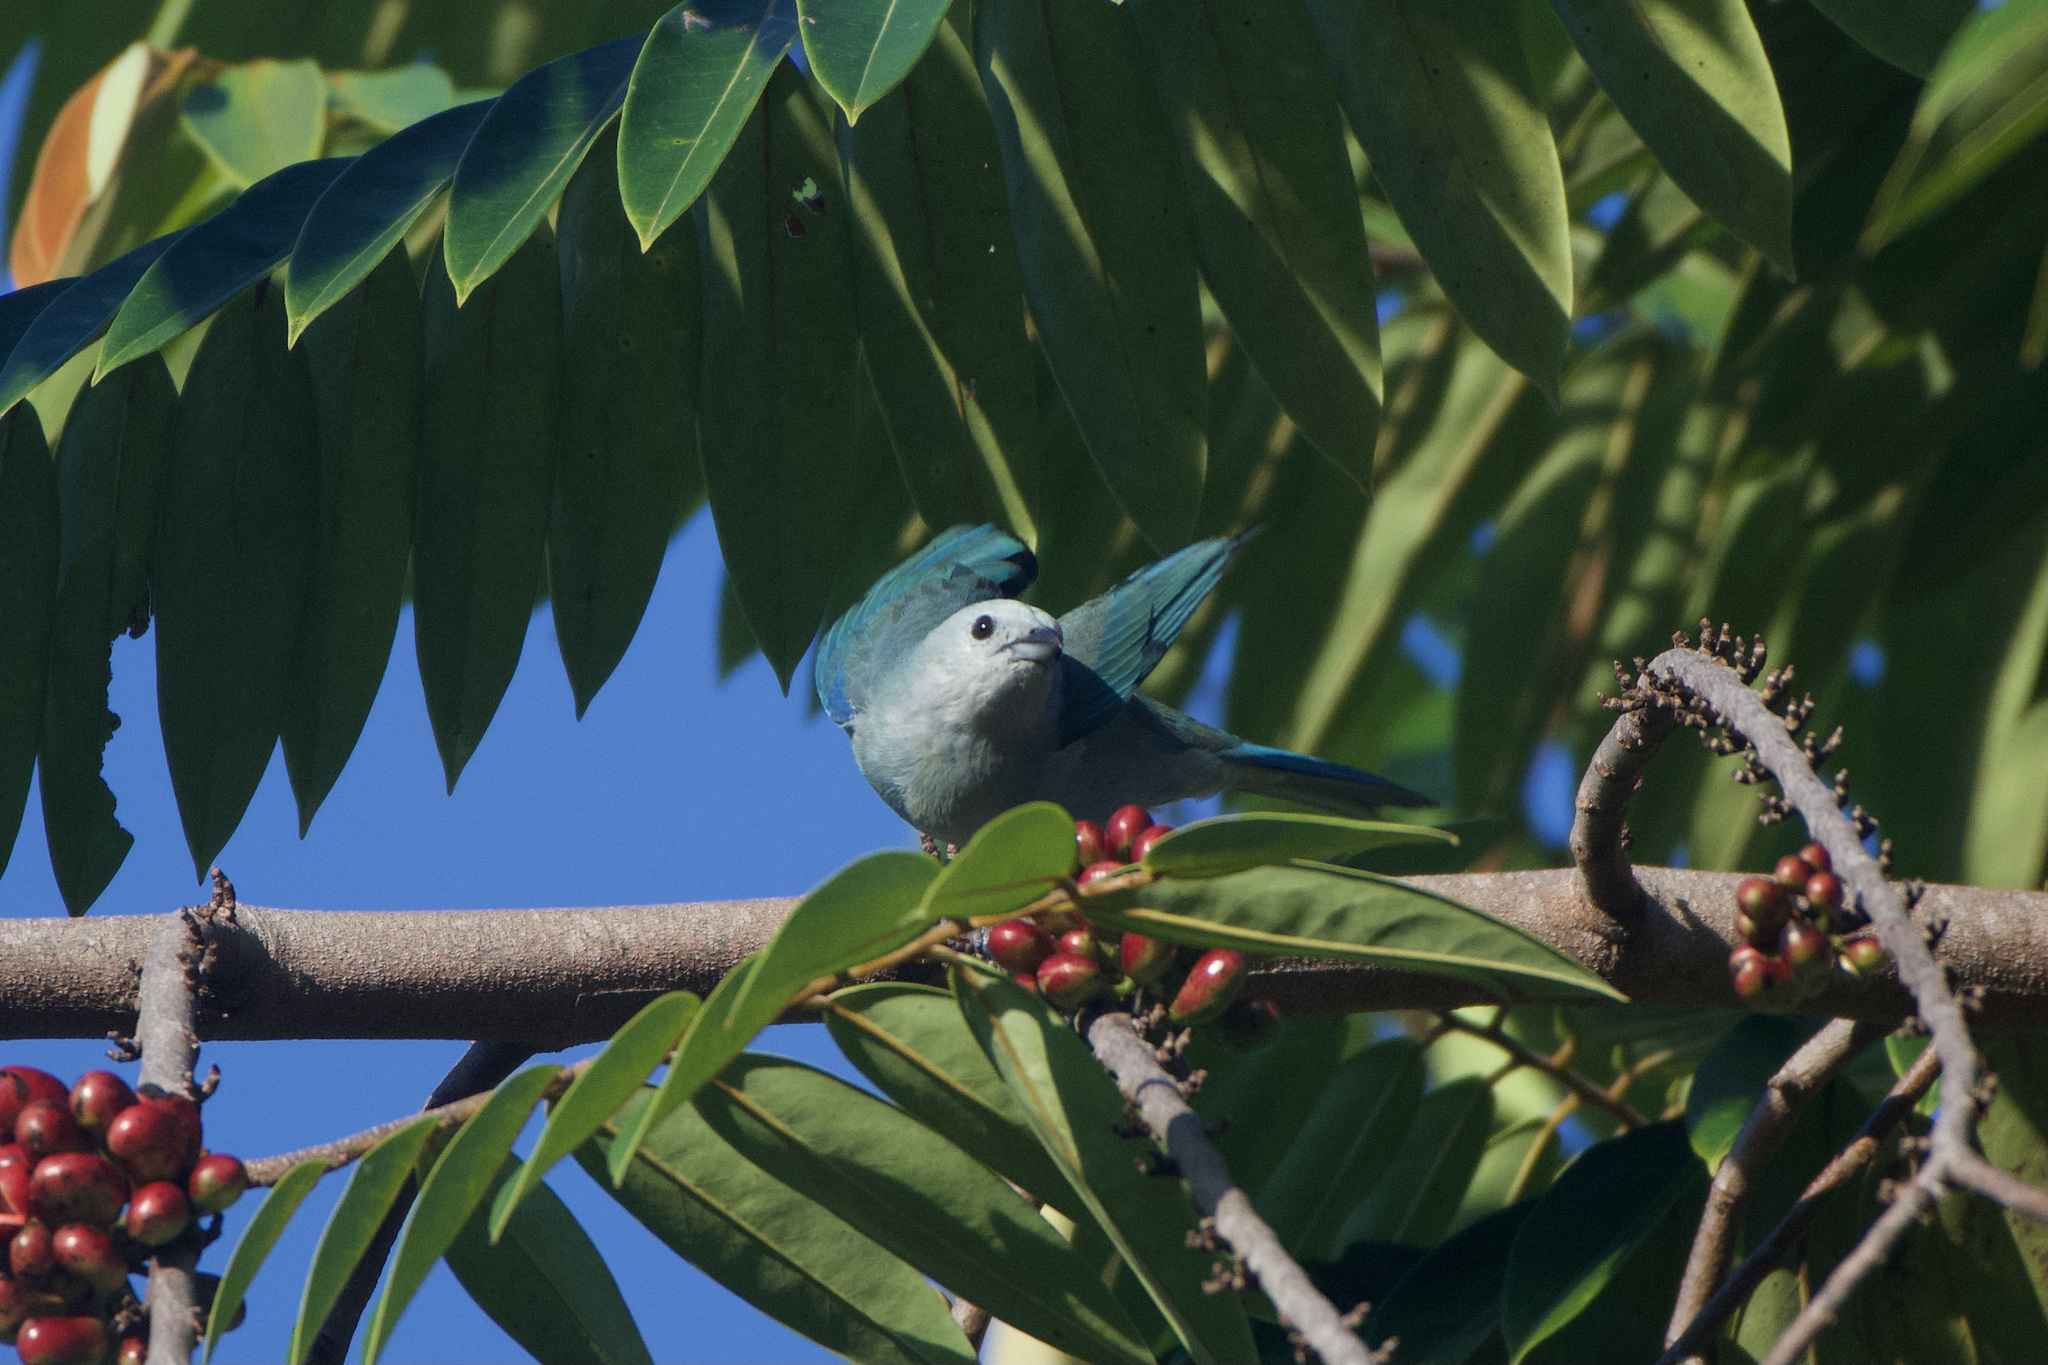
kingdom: Animalia
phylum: Chordata
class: Aves
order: Passeriformes
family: Thraupidae
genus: Thraupis
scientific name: Thraupis episcopus
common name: Blue-grey tanager
